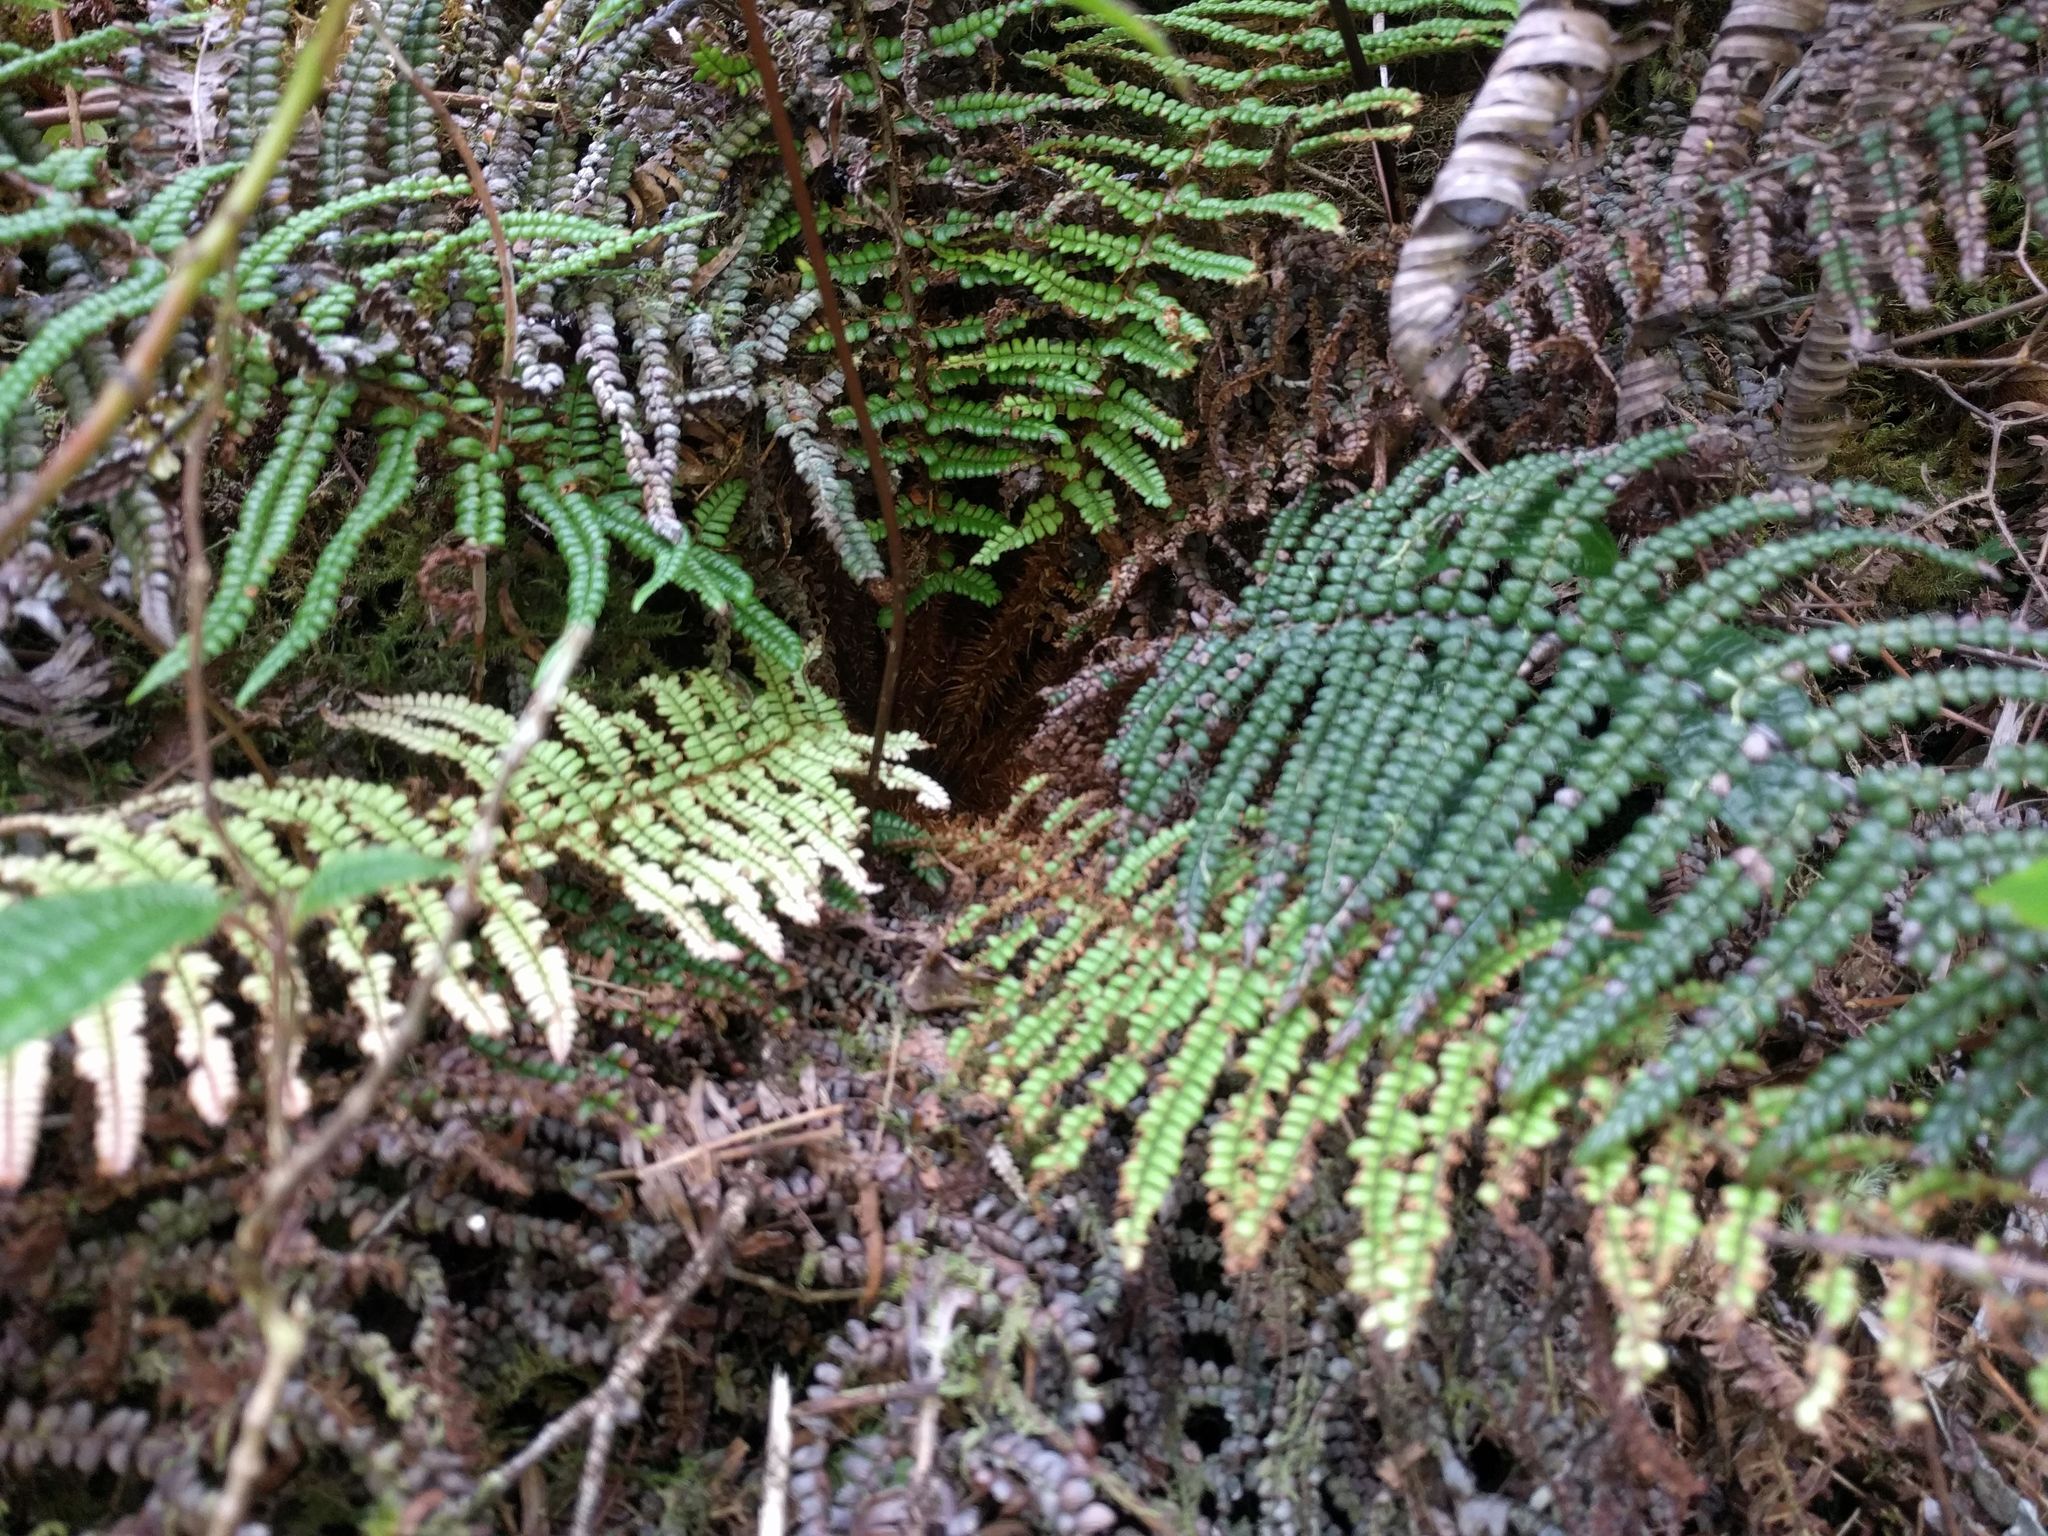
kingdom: Plantae
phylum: Tracheophyta
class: Polypodiopsida
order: Polypodiales
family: Blechnaceae
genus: Sadleria
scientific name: Sadleria squarrosa
